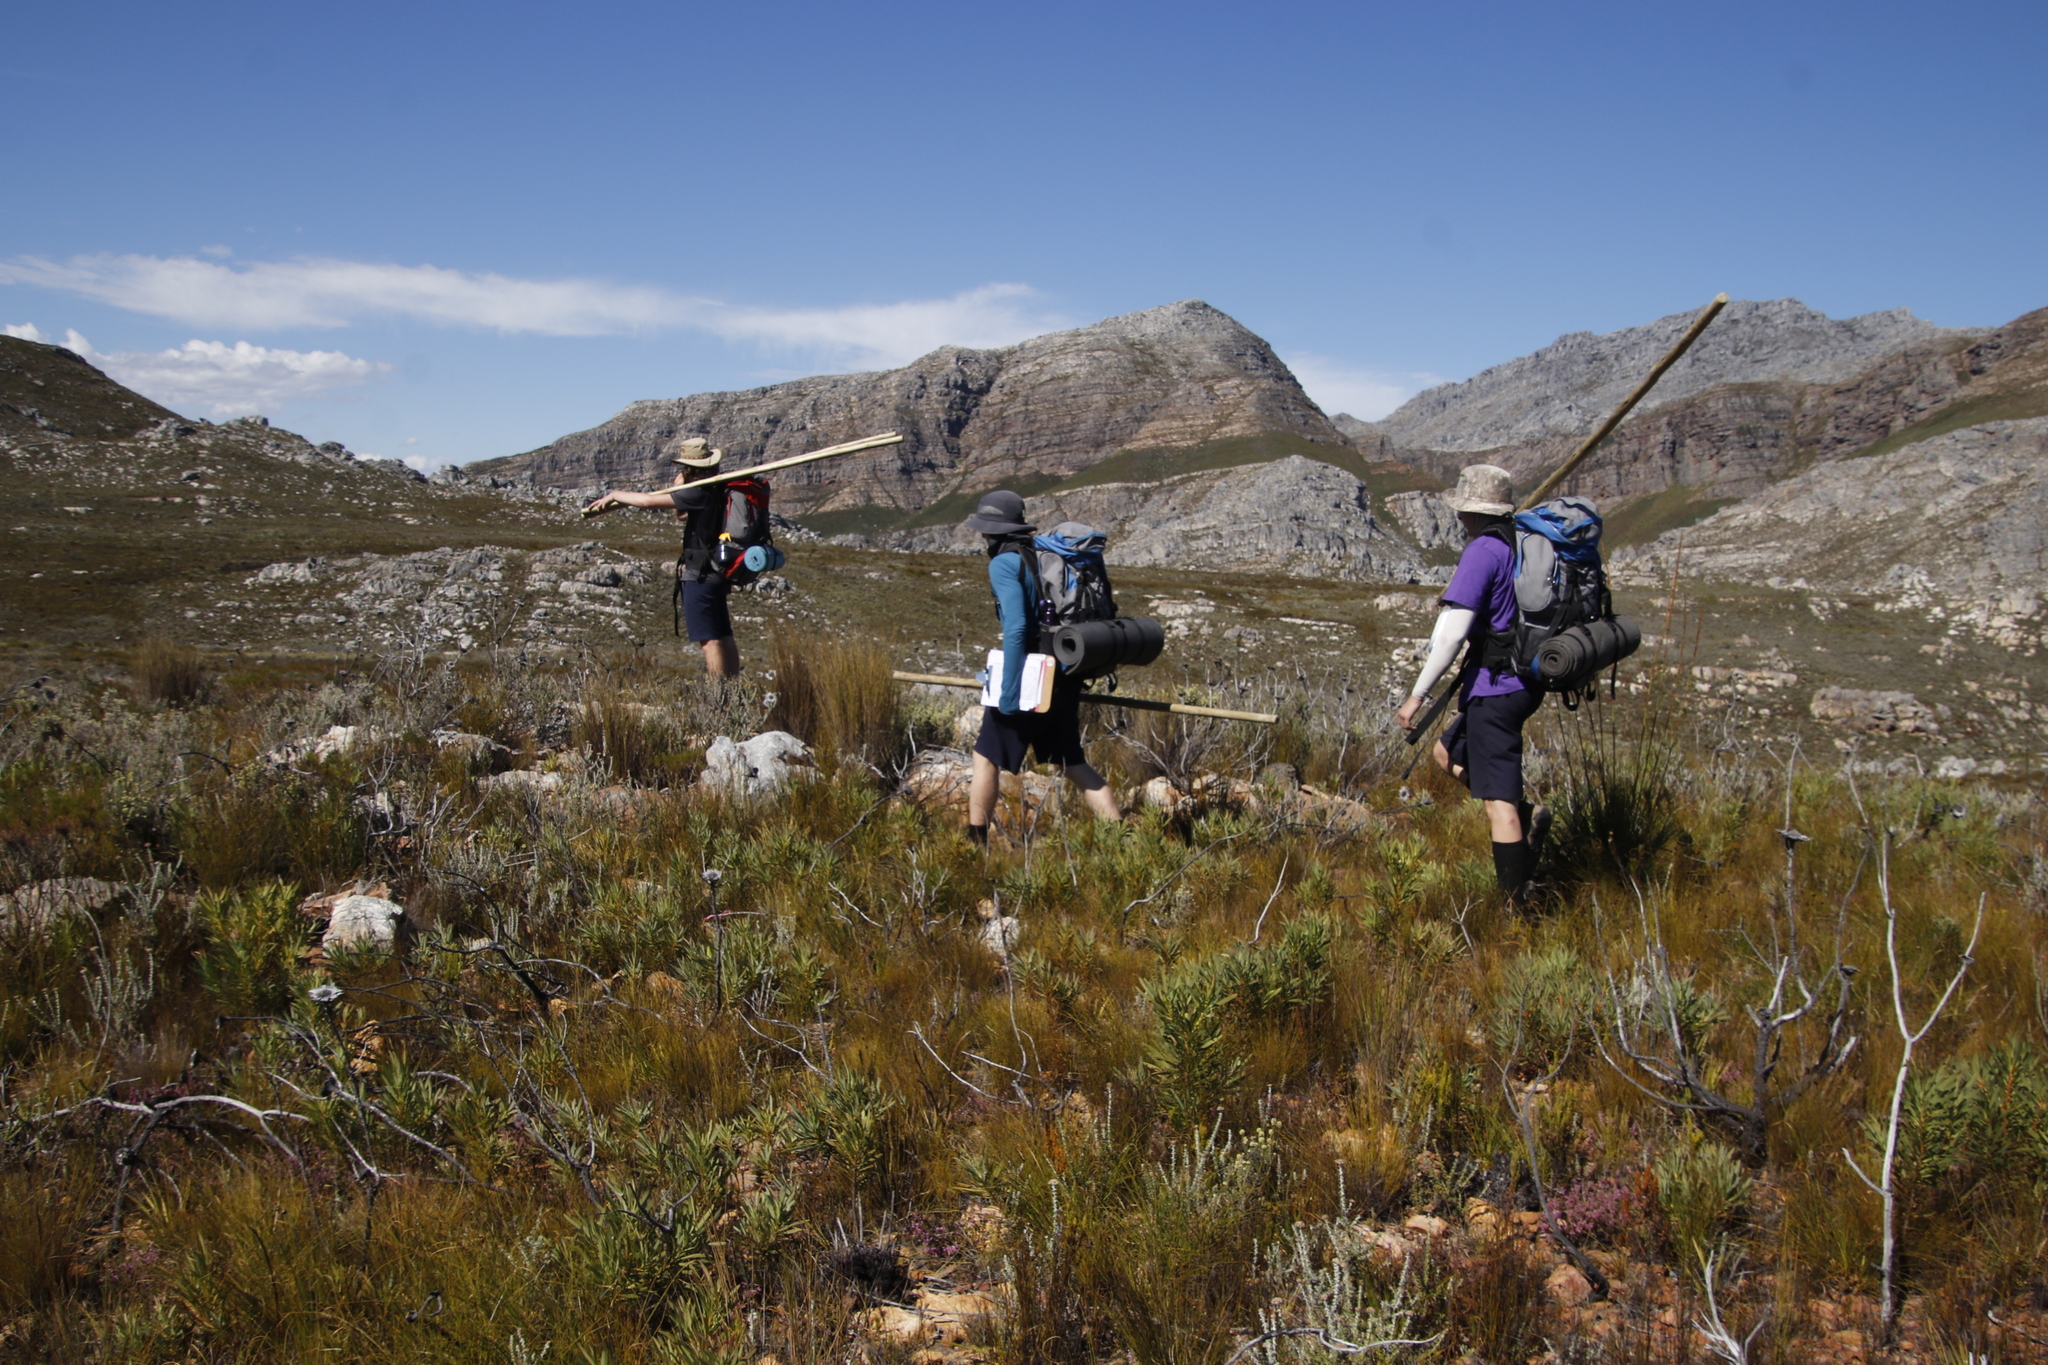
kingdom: Plantae
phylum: Tracheophyta
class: Magnoliopsida
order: Proteales
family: Proteaceae
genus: Protea
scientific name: Protea repens
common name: Sugarbush
